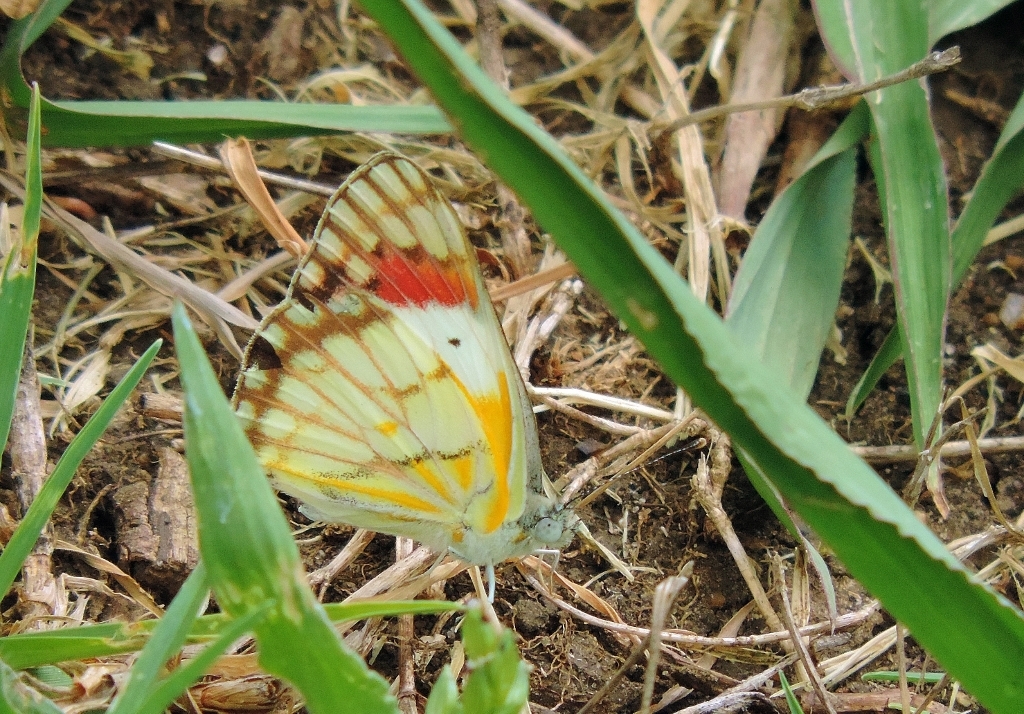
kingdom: Animalia
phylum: Arthropoda
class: Insecta
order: Lepidoptera
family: Pieridae
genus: Colotis
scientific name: Colotis celimene
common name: Lilac tip
